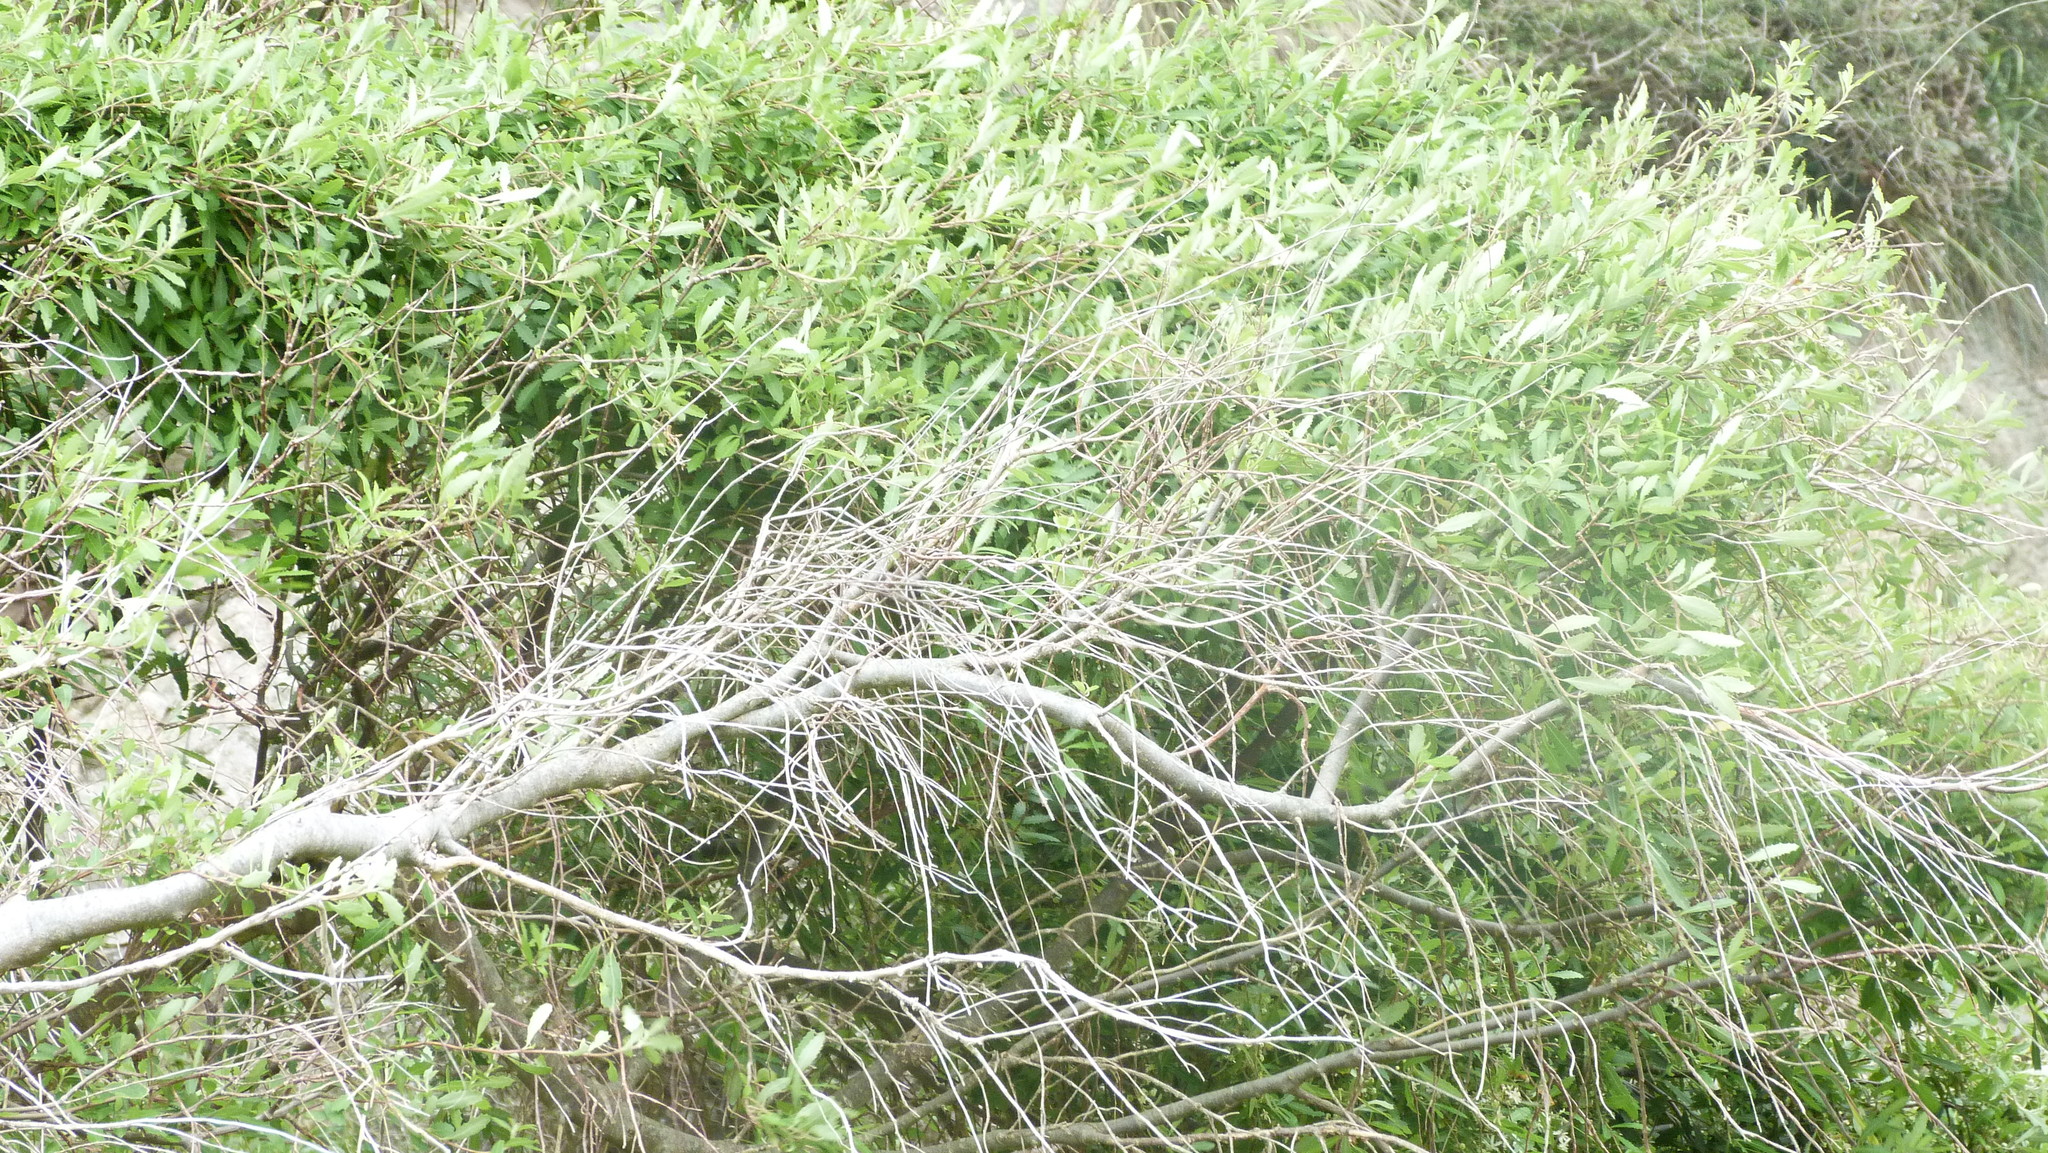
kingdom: Plantae
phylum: Tracheophyta
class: Magnoliopsida
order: Malvales
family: Malvaceae
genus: Hoheria
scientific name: Hoheria angustifolia
